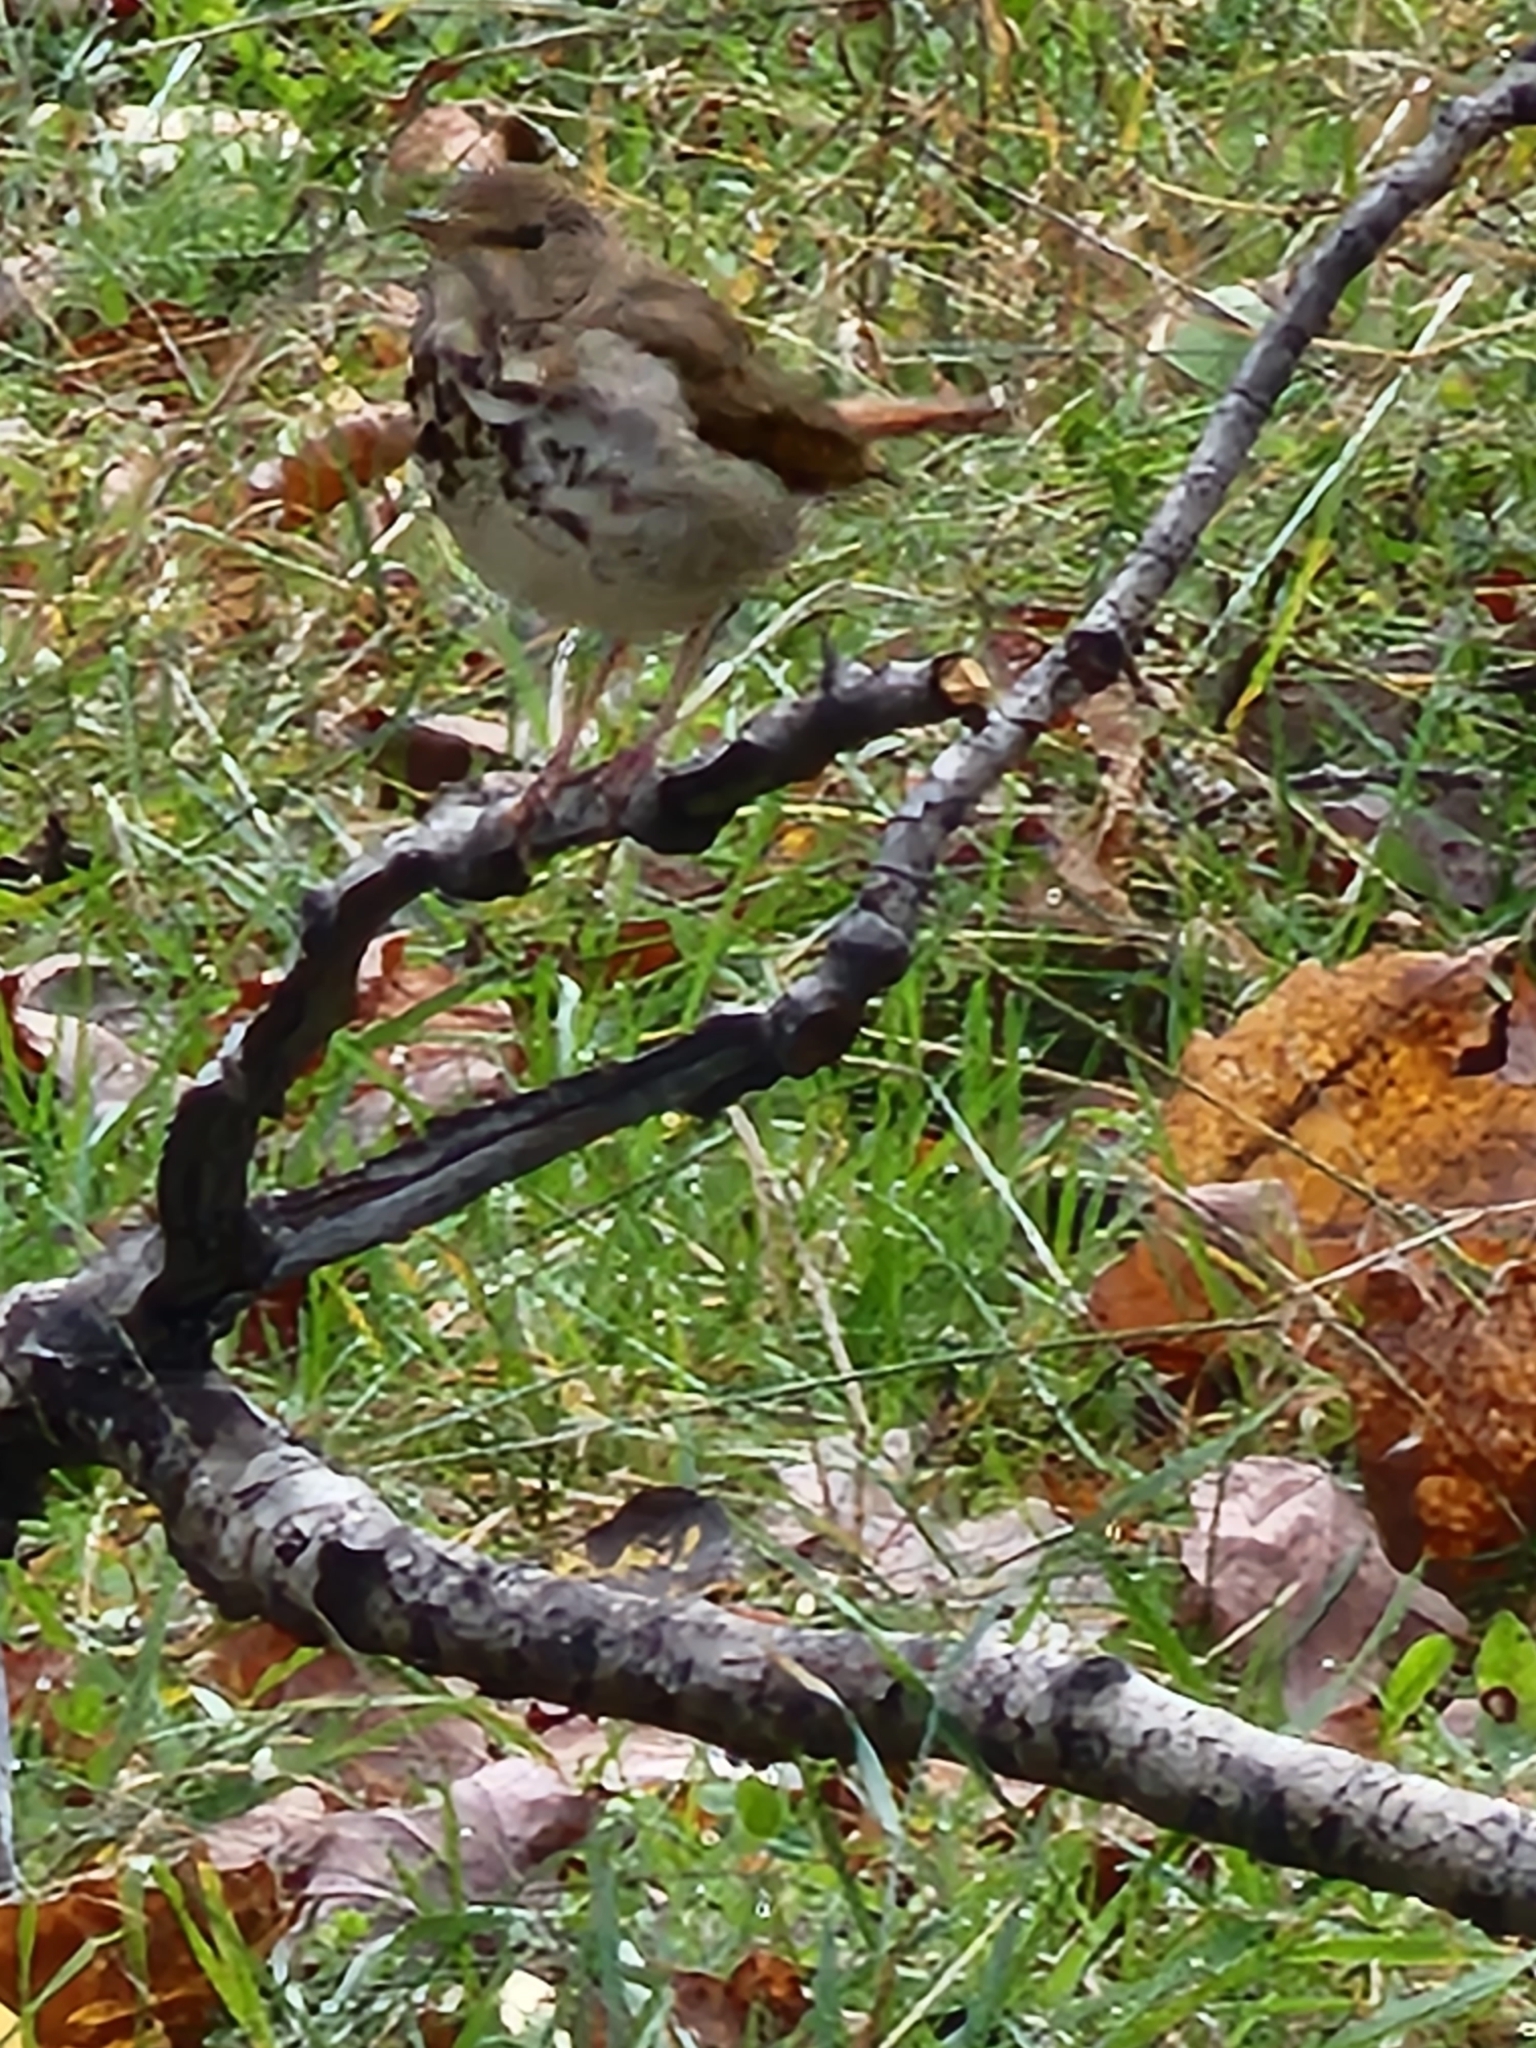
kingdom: Animalia
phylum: Chordata
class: Aves
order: Passeriformes
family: Turdidae
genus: Catharus
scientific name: Catharus guttatus
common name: Hermit thrush
